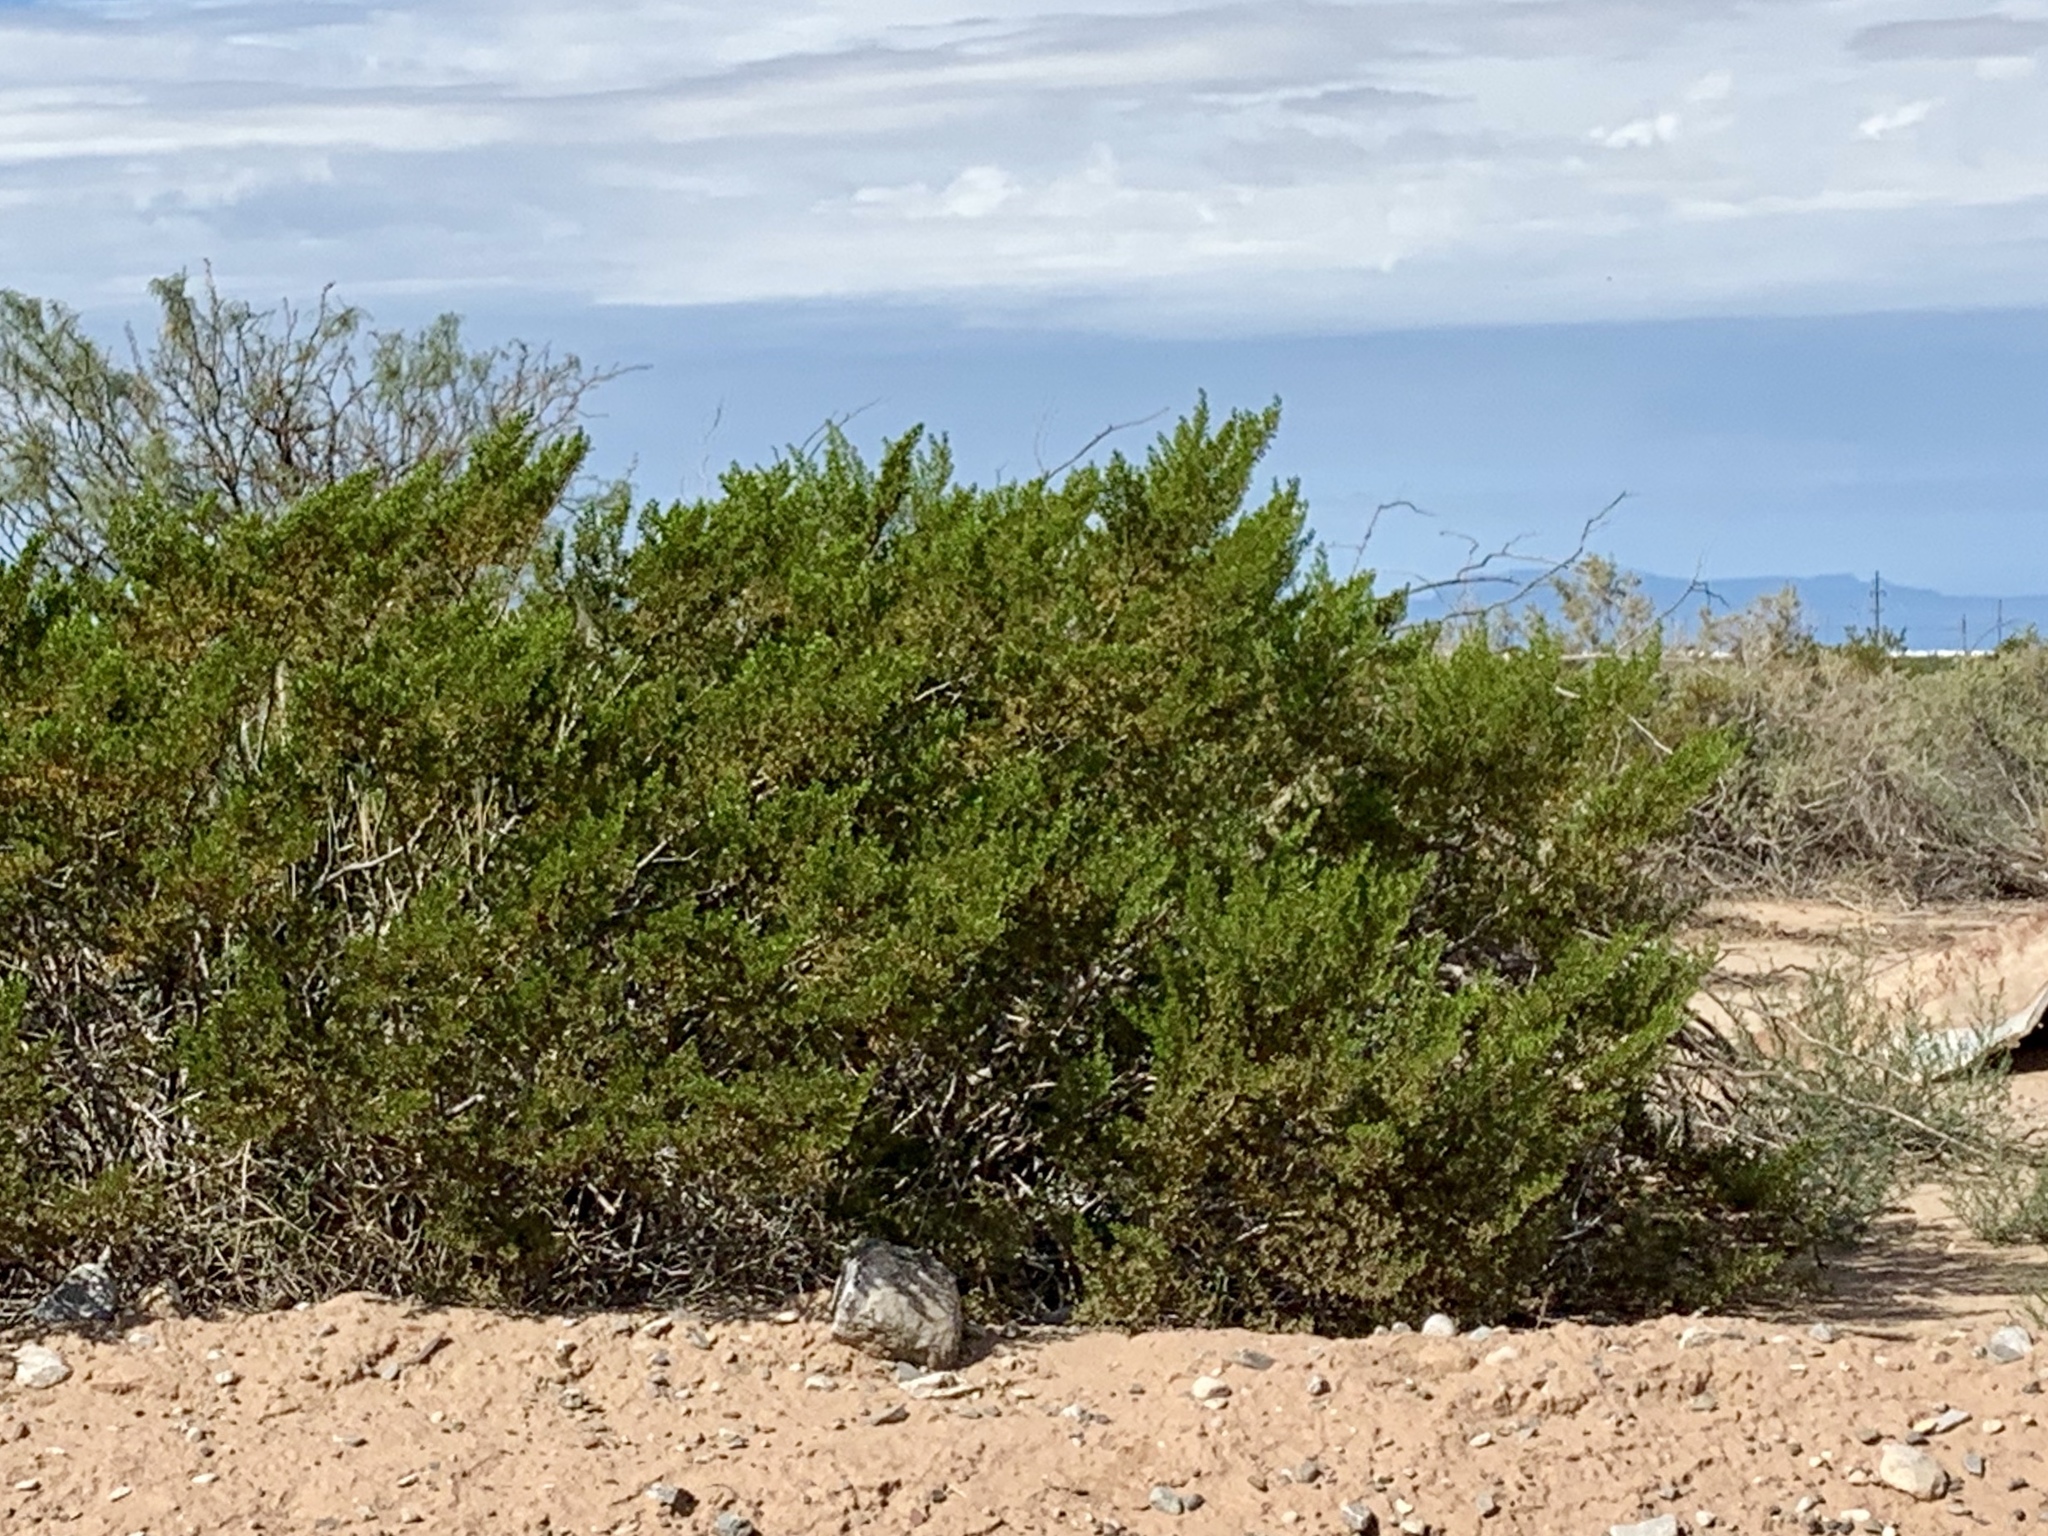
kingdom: Plantae
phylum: Tracheophyta
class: Magnoliopsida
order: Zygophyllales
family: Zygophyllaceae
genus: Larrea
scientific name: Larrea tridentata
